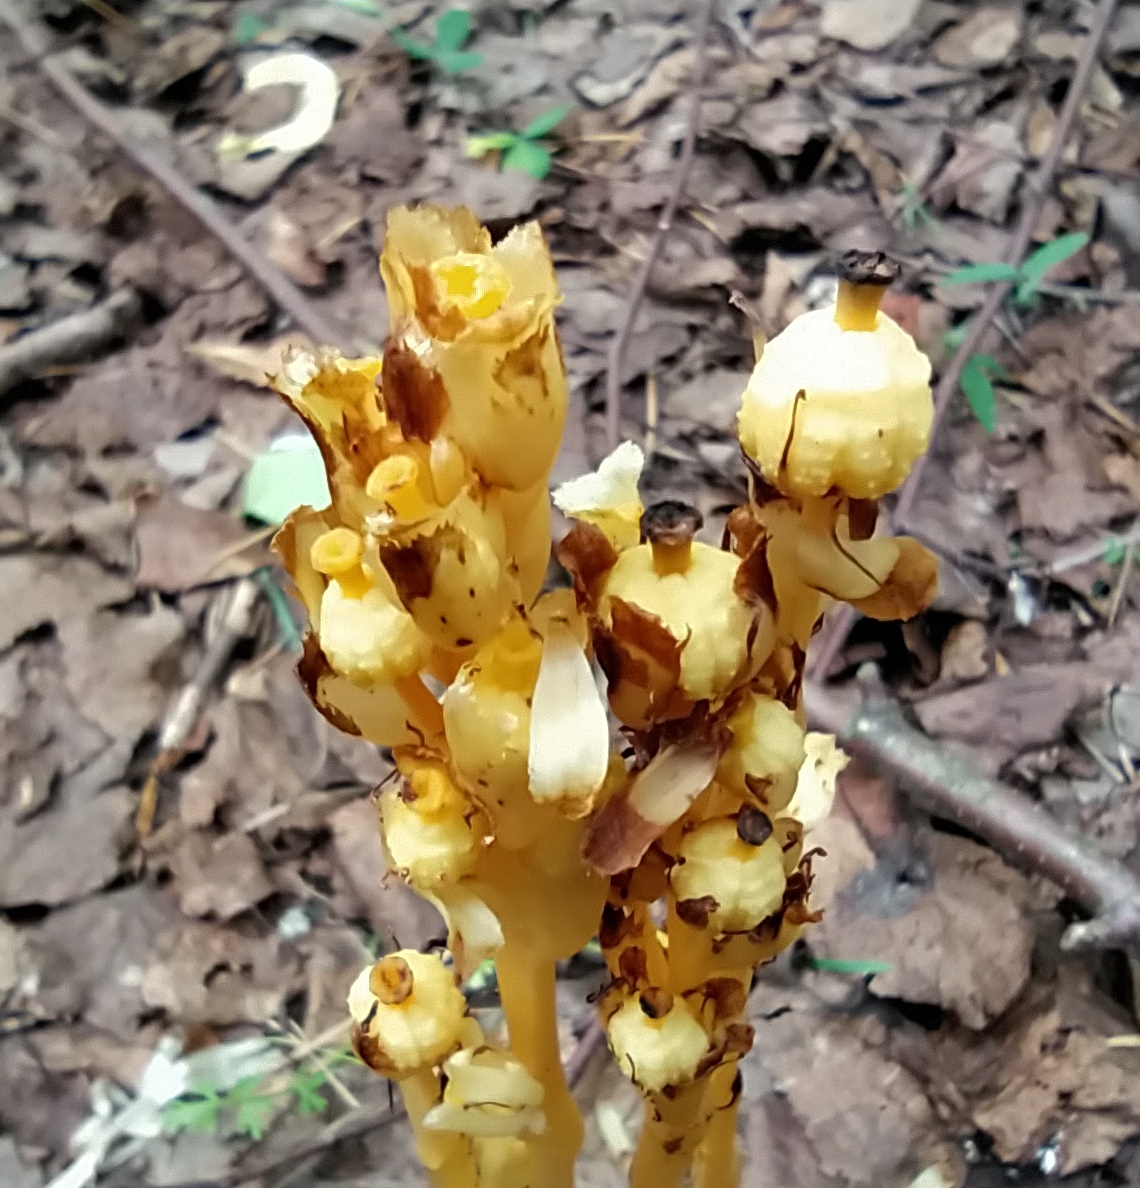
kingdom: Plantae
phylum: Tracheophyta
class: Magnoliopsida
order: Ericales
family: Ericaceae
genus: Hypopitys
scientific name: Hypopitys monotropa
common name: Yellow bird's-nest
